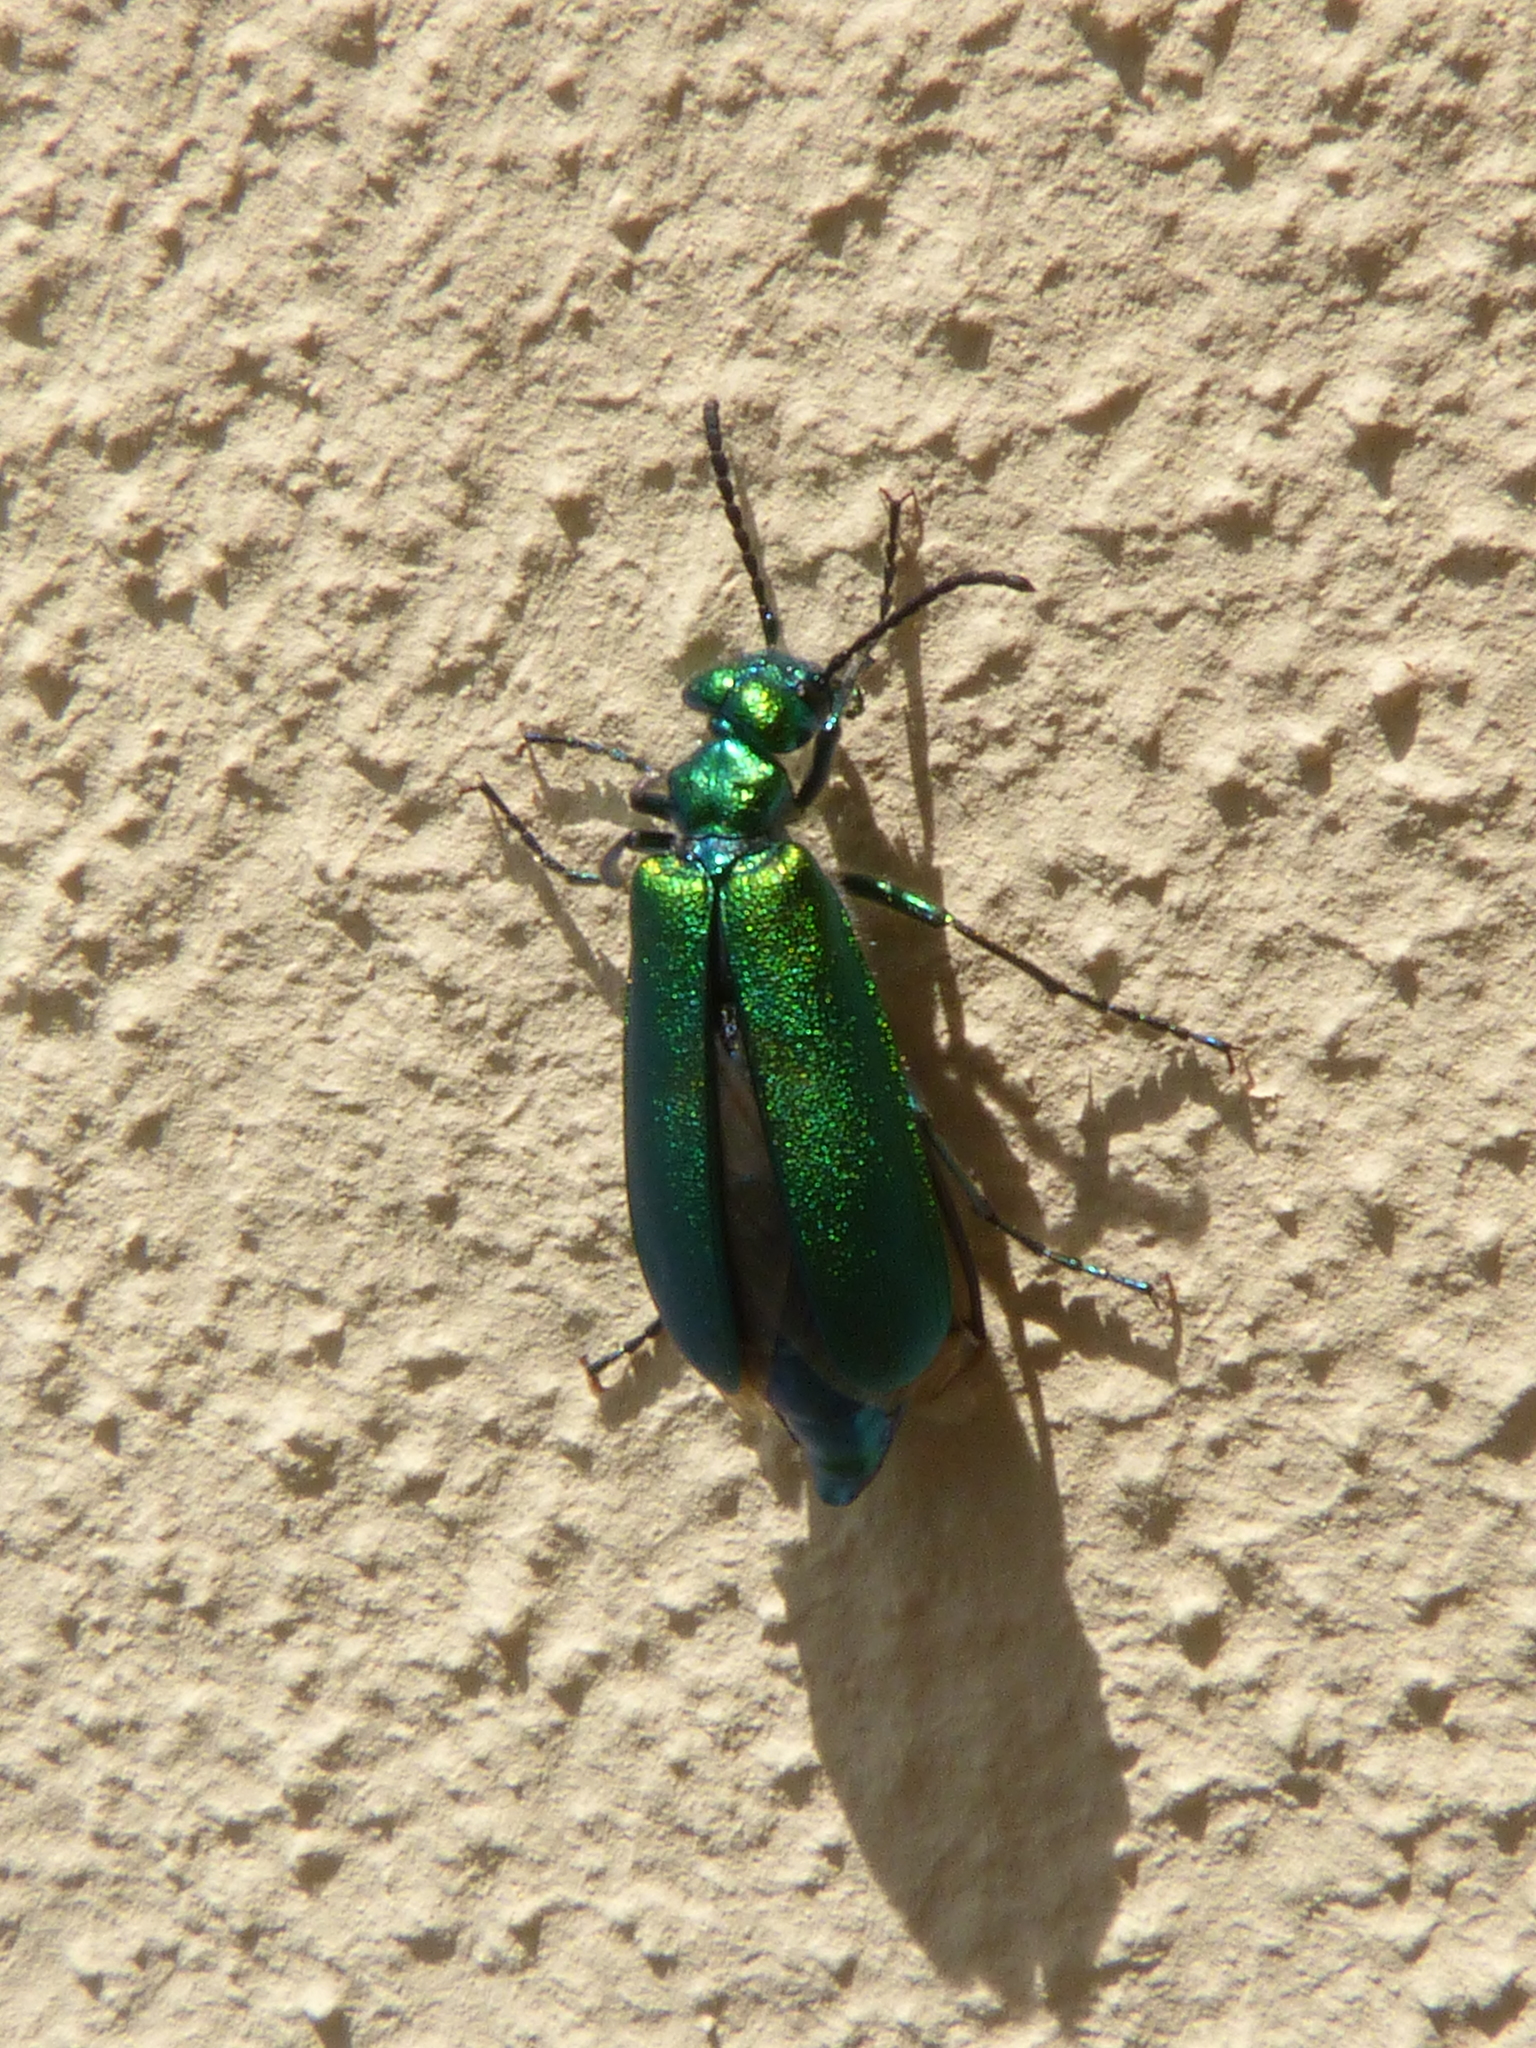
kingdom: Animalia
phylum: Arthropoda
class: Insecta
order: Coleoptera
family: Meloidae
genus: Lytta
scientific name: Lytta vesicatoria
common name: Spanish fly
